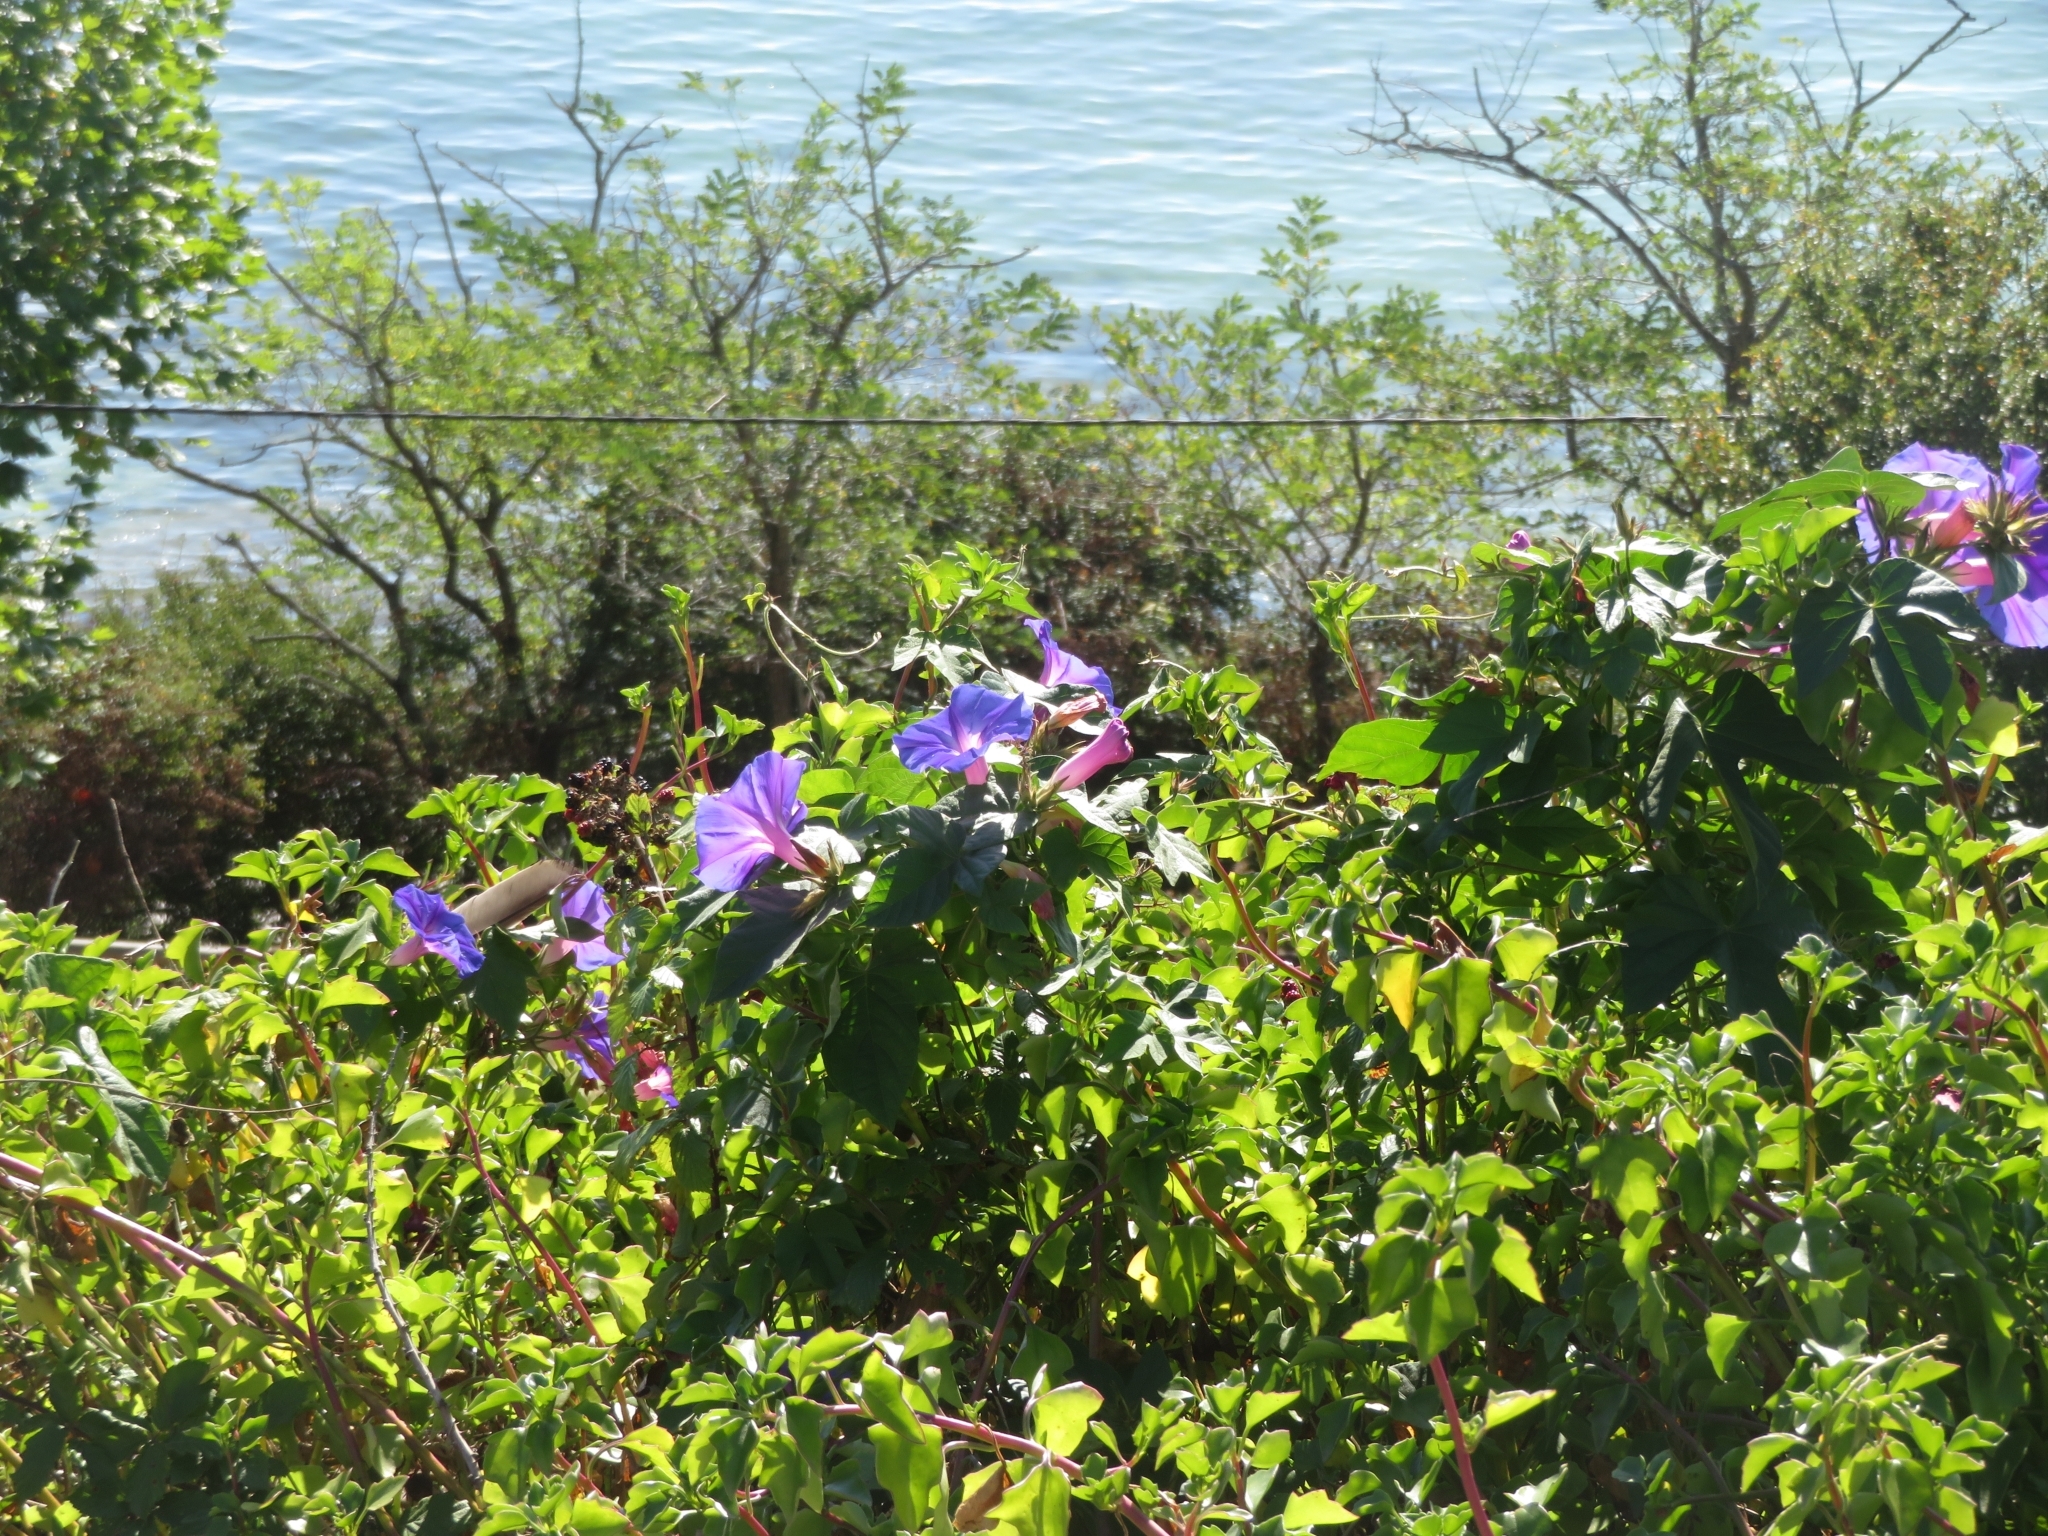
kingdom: Plantae
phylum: Tracheophyta
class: Magnoliopsida
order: Solanales
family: Convolvulaceae
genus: Ipomoea
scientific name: Ipomoea indica
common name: Blue dawnflower
